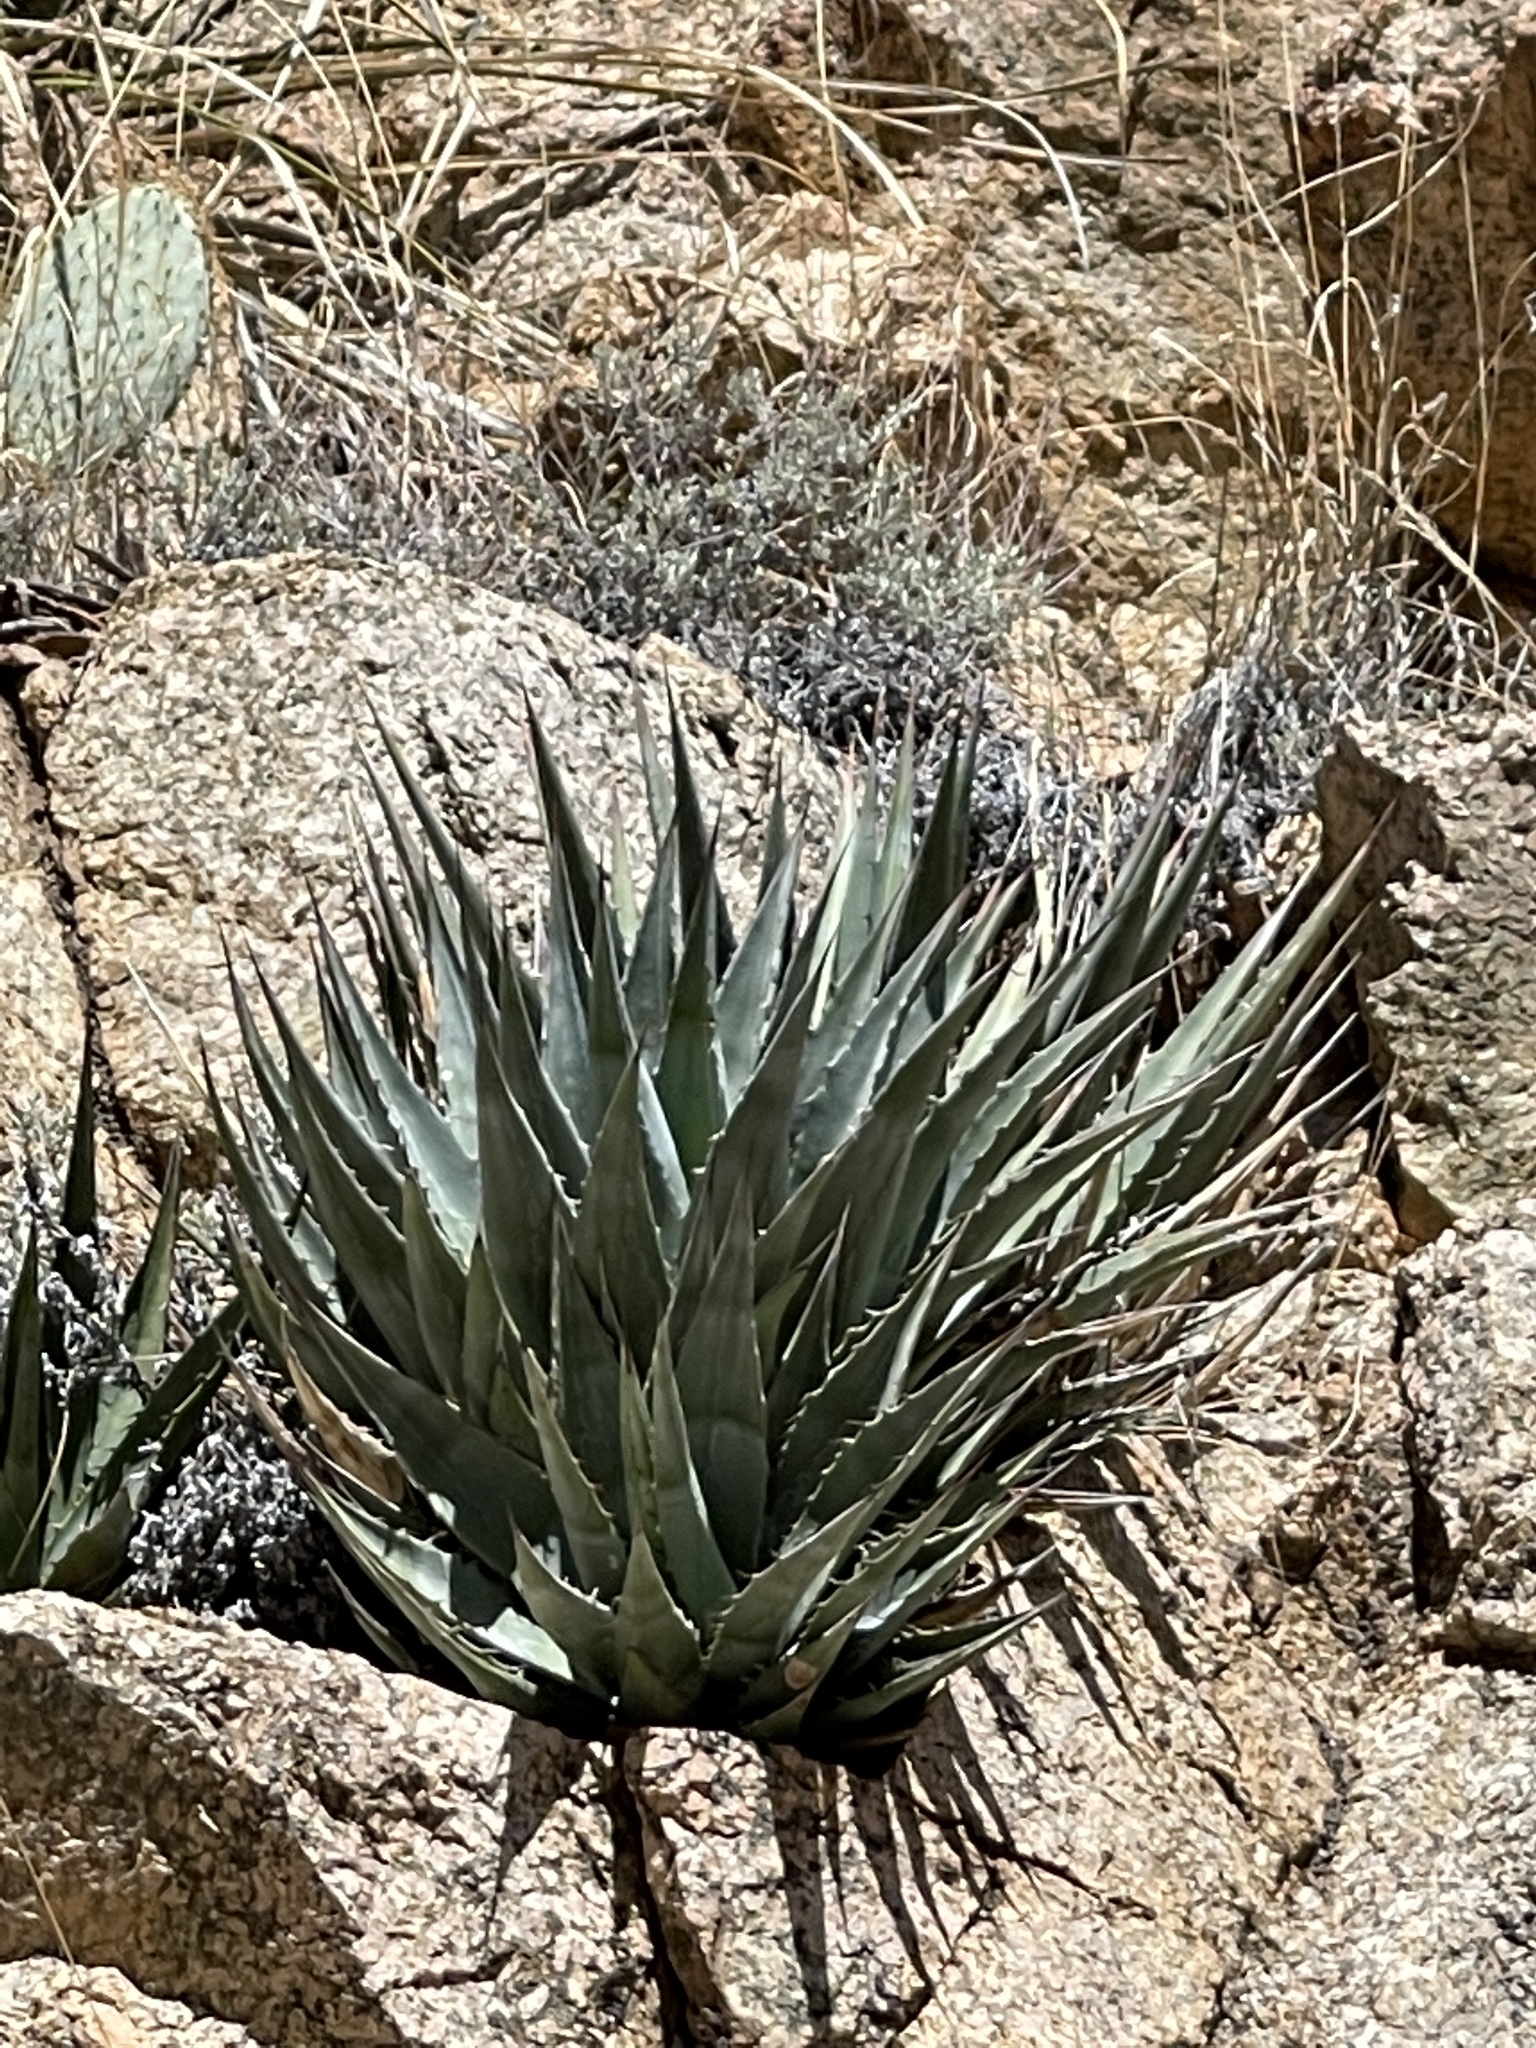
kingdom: Plantae
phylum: Tracheophyta
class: Liliopsida
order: Asparagales
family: Asparagaceae
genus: Agave
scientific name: Agave mckelveyana
